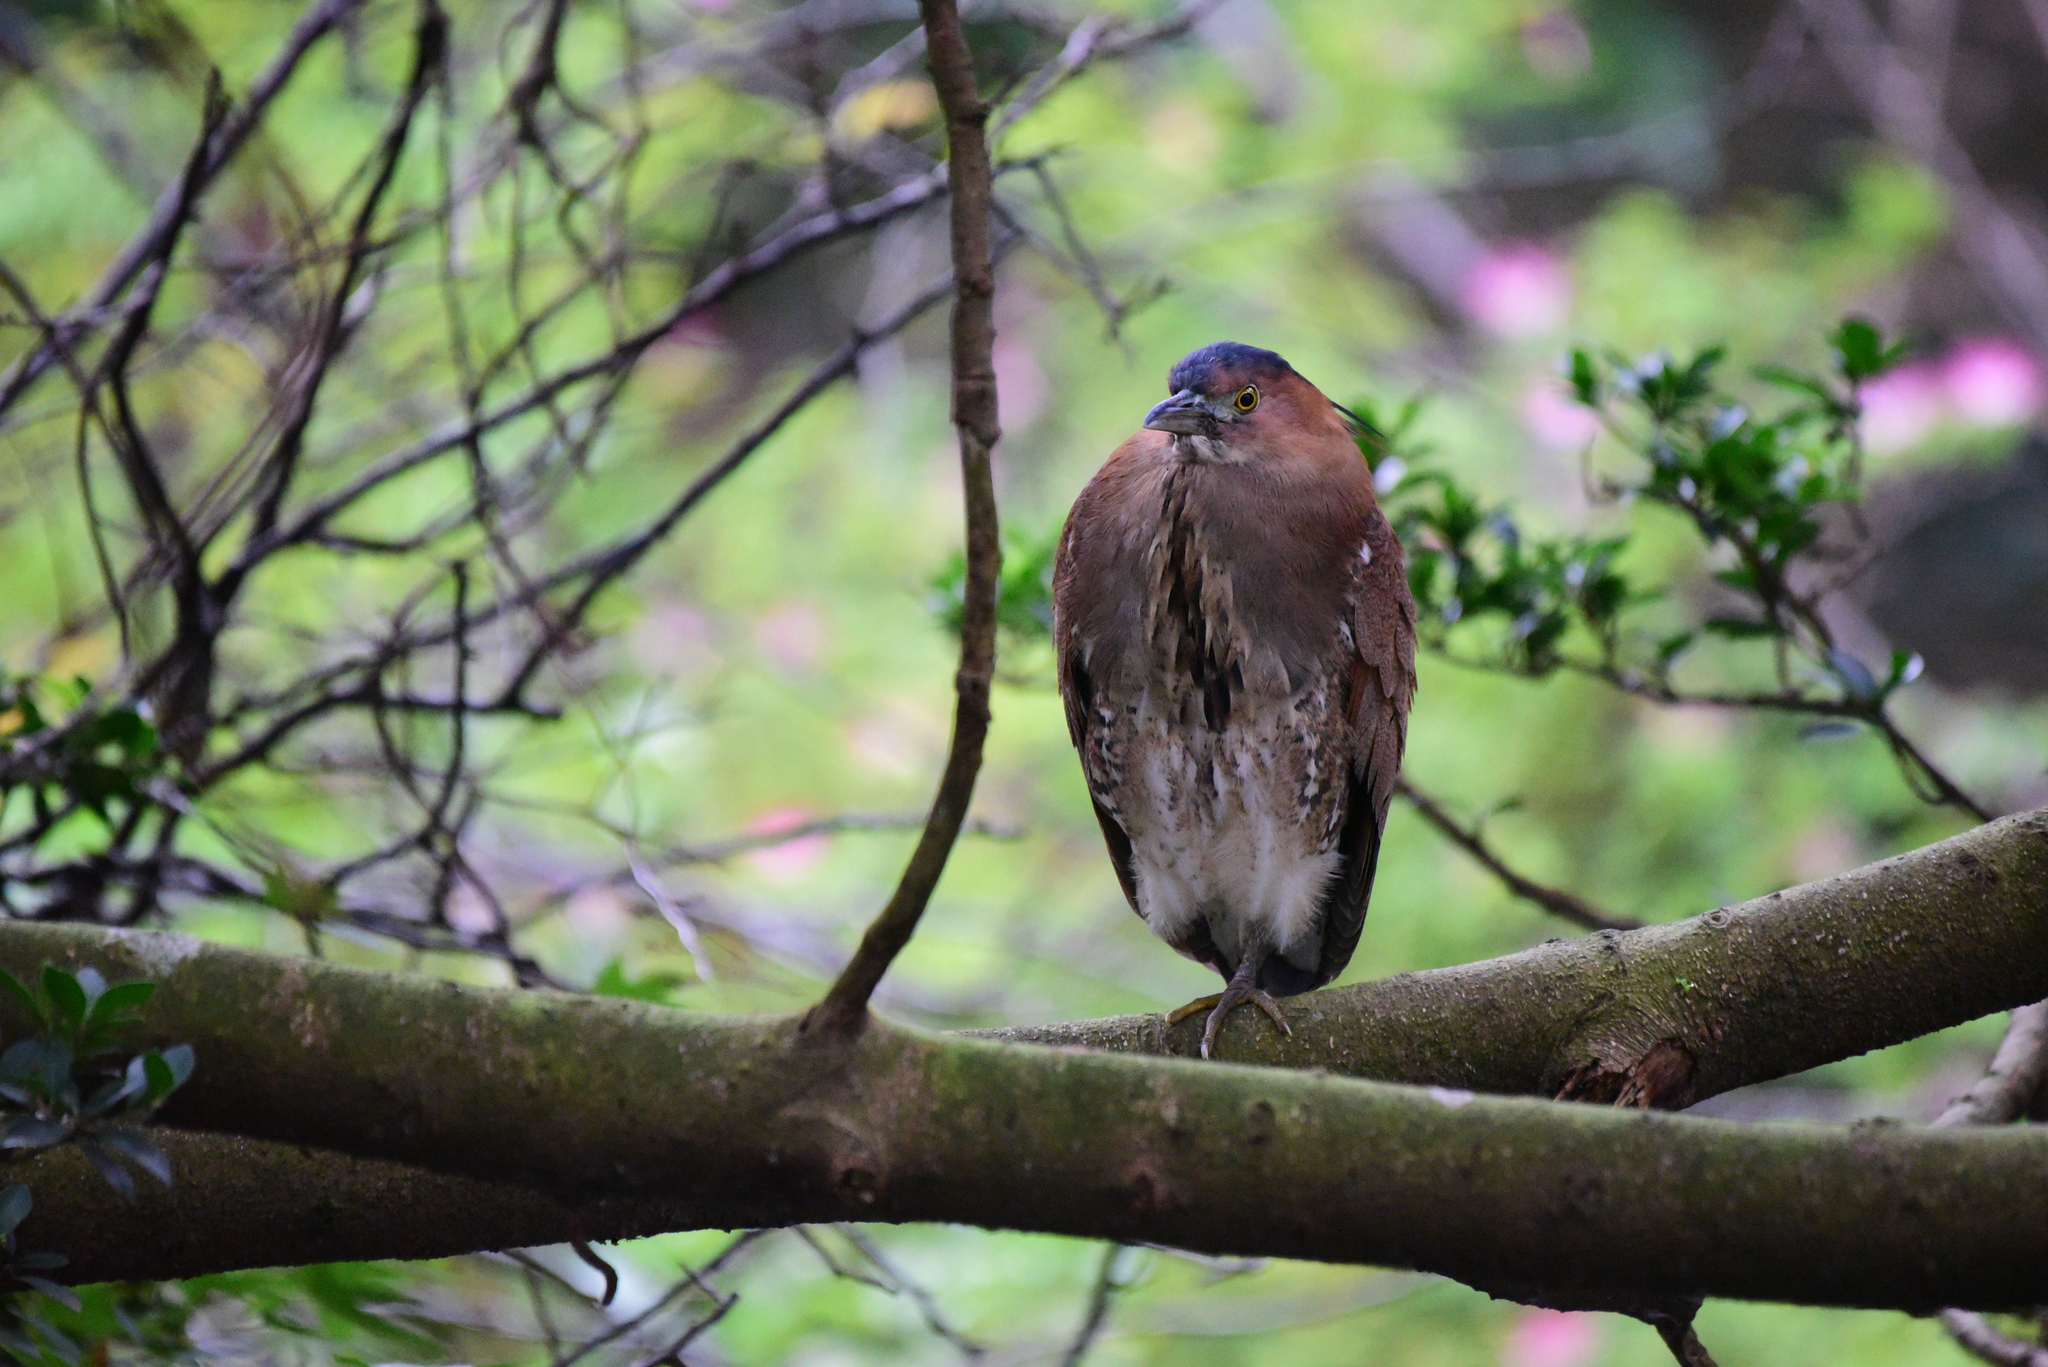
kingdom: Animalia
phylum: Chordata
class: Aves
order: Pelecaniformes
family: Ardeidae
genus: Gorsachius
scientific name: Gorsachius melanolophus
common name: Malayan night heron
